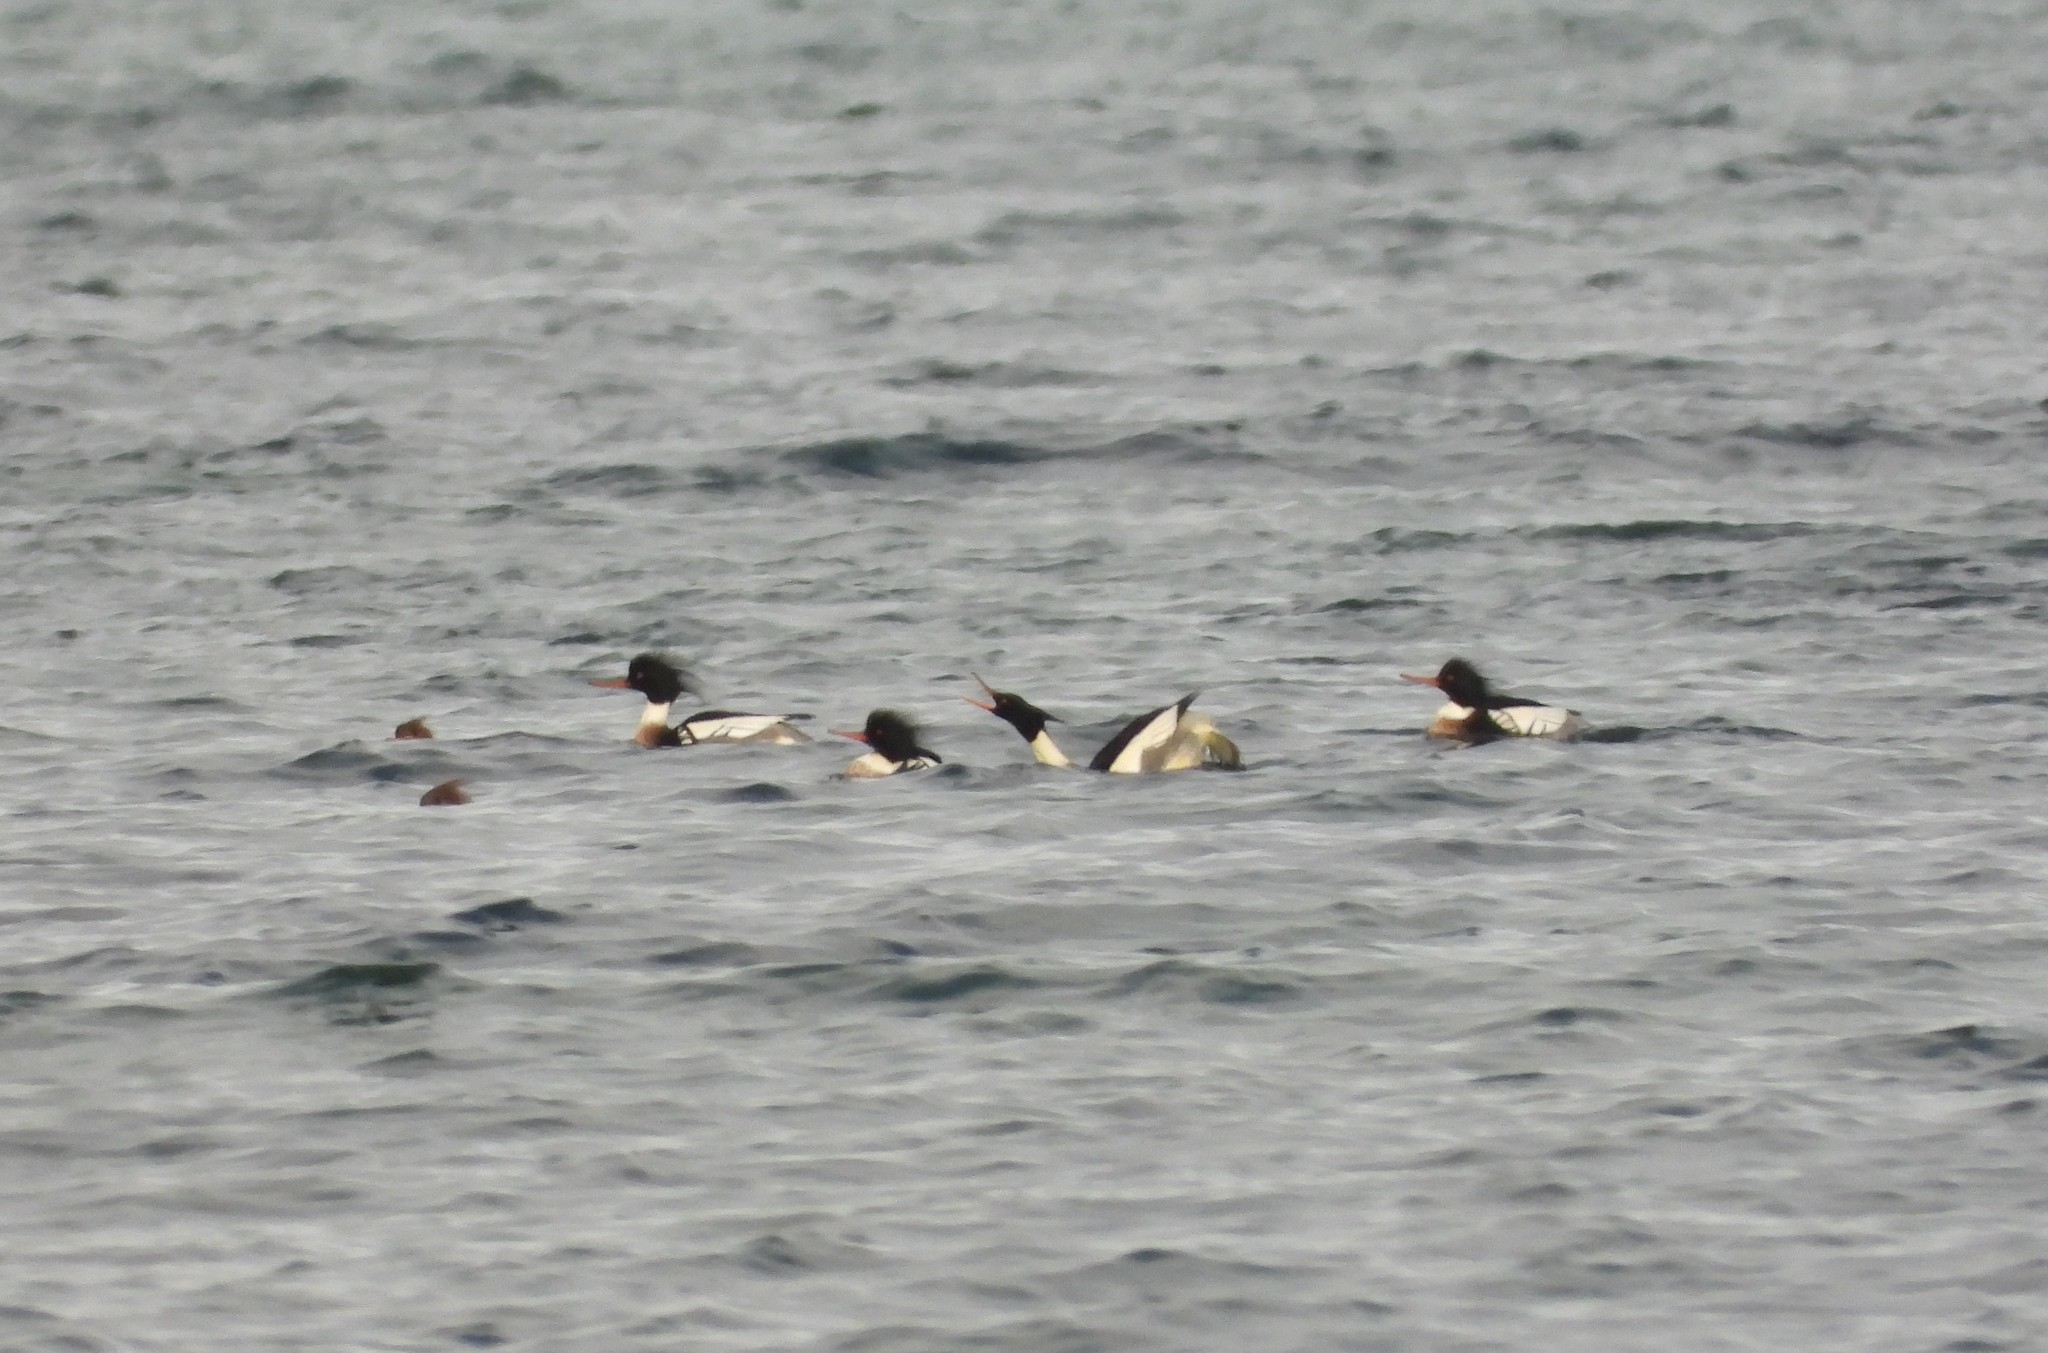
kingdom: Animalia
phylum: Chordata
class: Aves
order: Anseriformes
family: Anatidae
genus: Mergus
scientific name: Mergus serrator
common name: Red-breasted merganser
